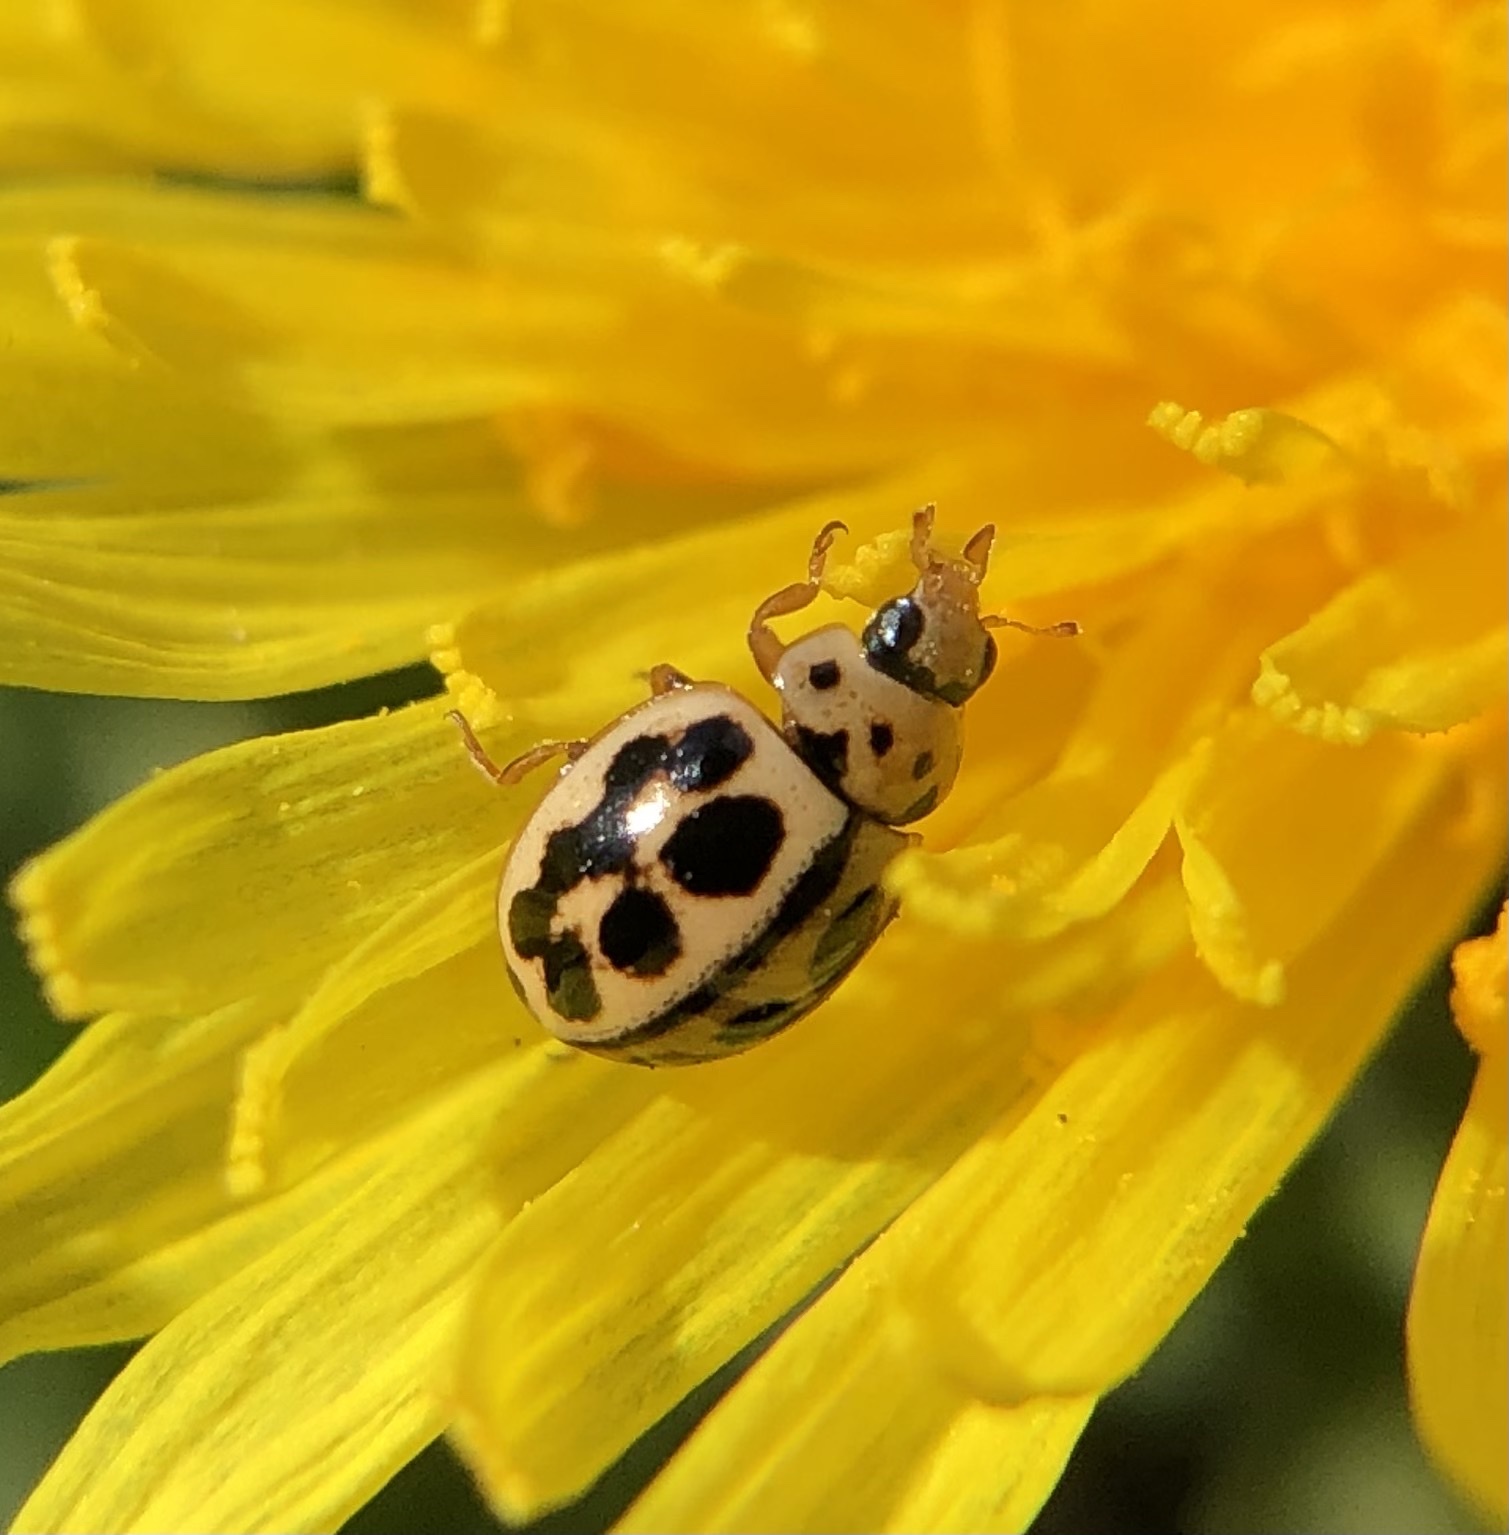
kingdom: Animalia
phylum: Arthropoda
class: Insecta
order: Coleoptera
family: Coccinellidae
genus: Tytthaspis
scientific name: Tytthaspis sedecimpunctata
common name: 16-spot ladybird
